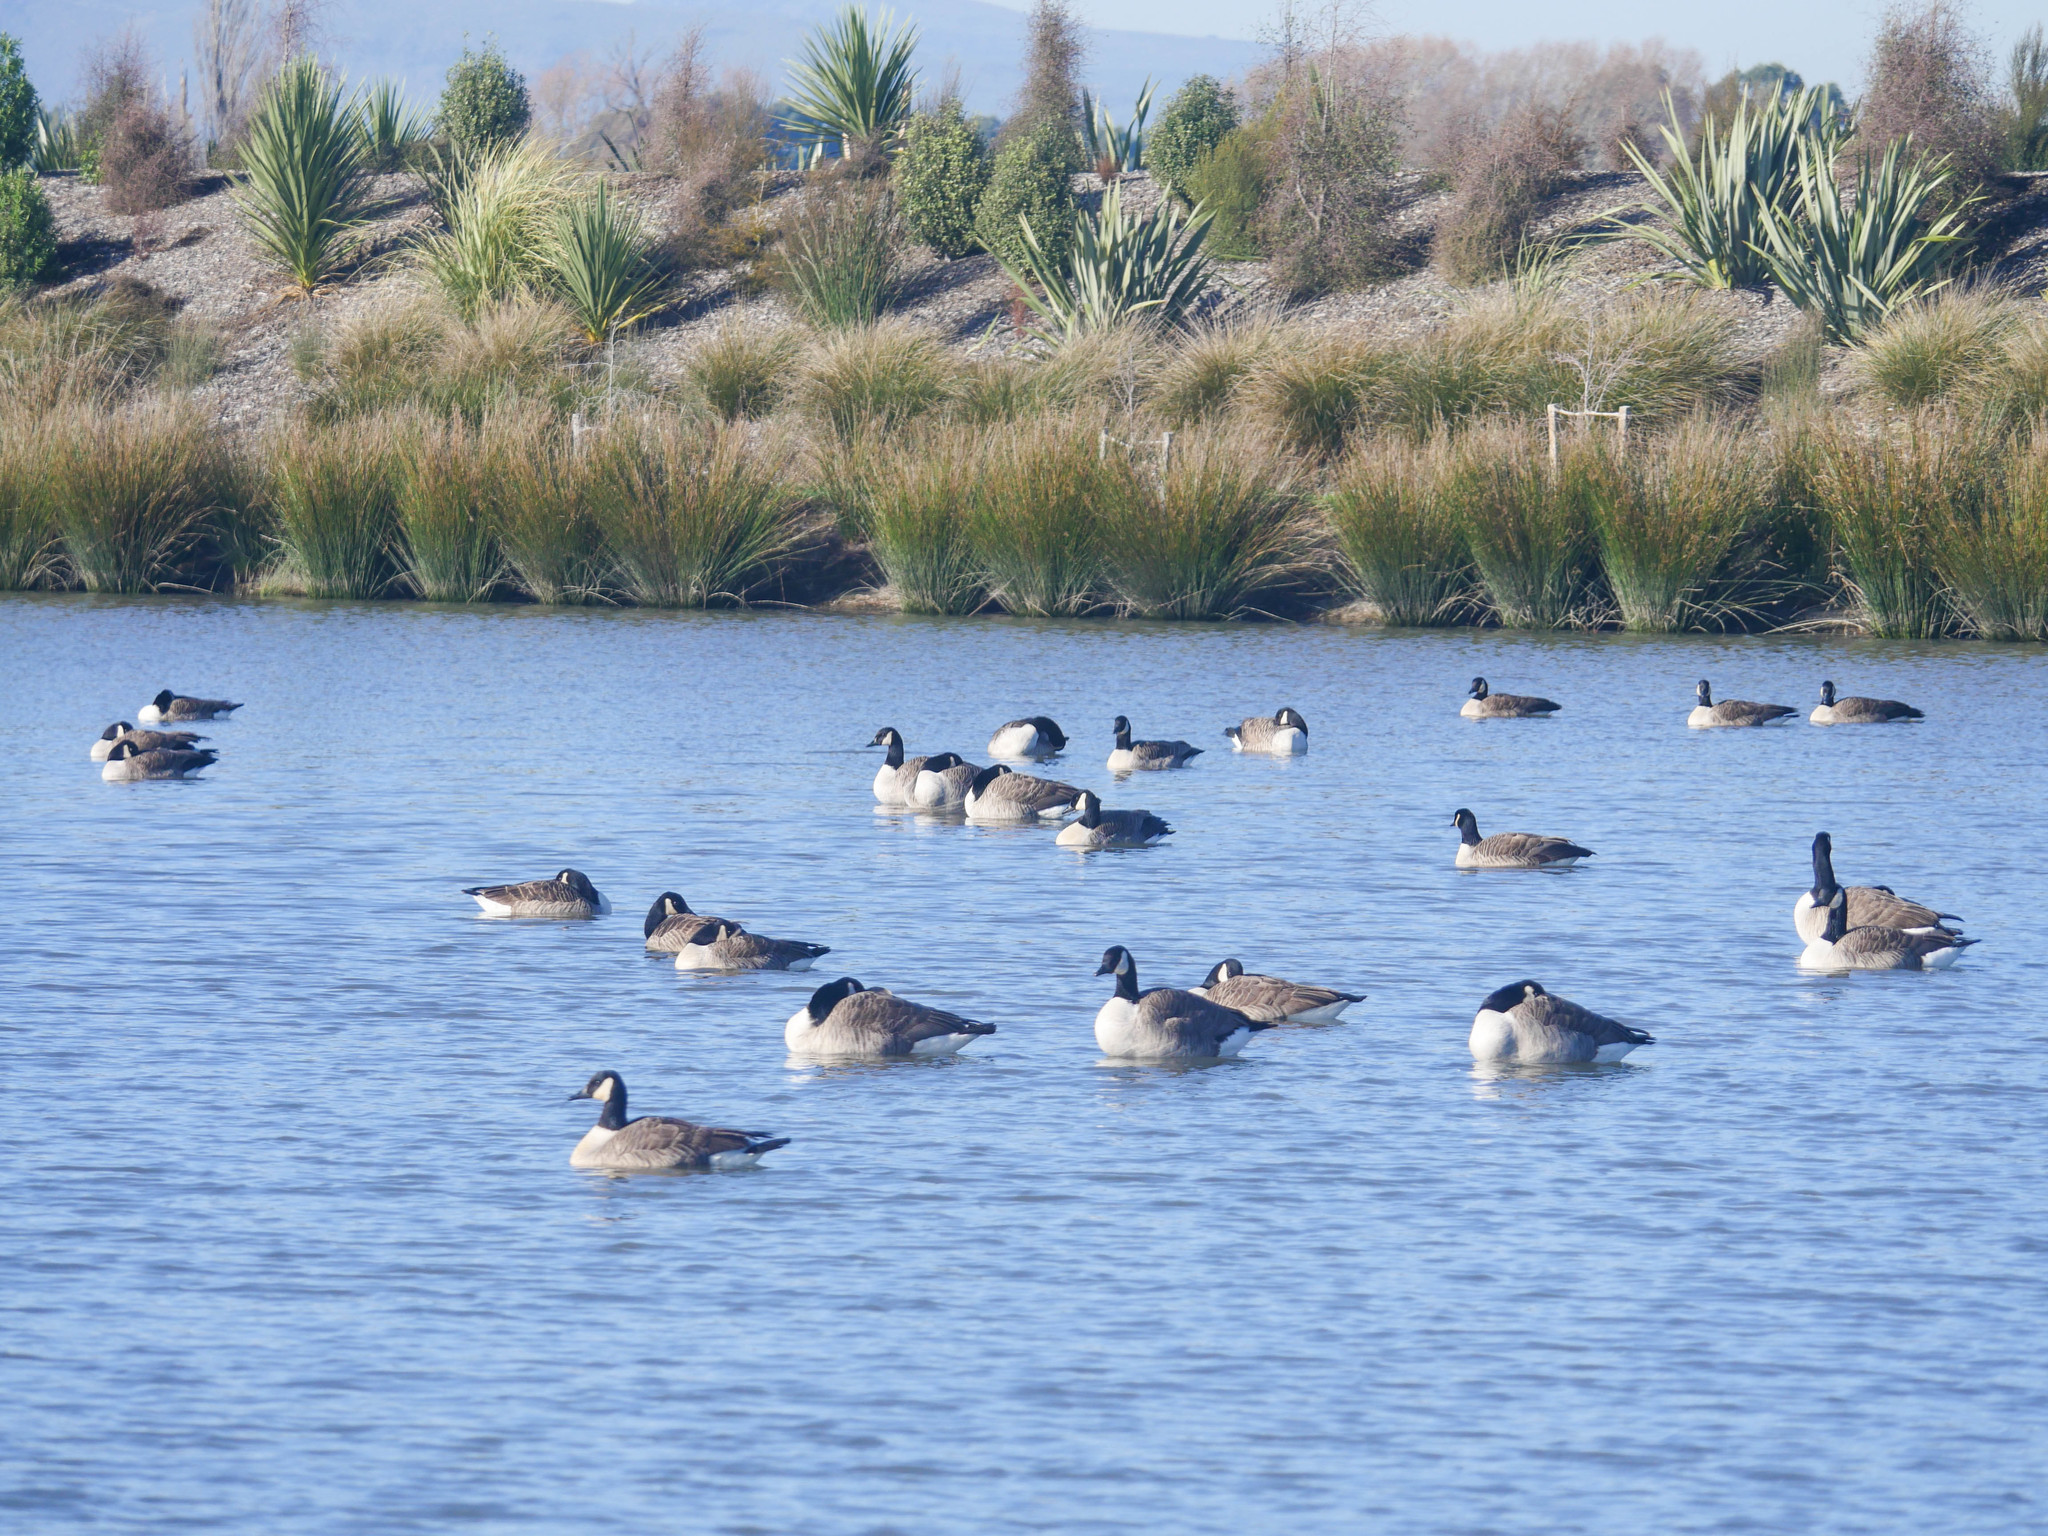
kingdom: Animalia
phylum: Chordata
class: Aves
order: Anseriformes
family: Anatidae
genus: Branta
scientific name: Branta canadensis
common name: Canada goose
